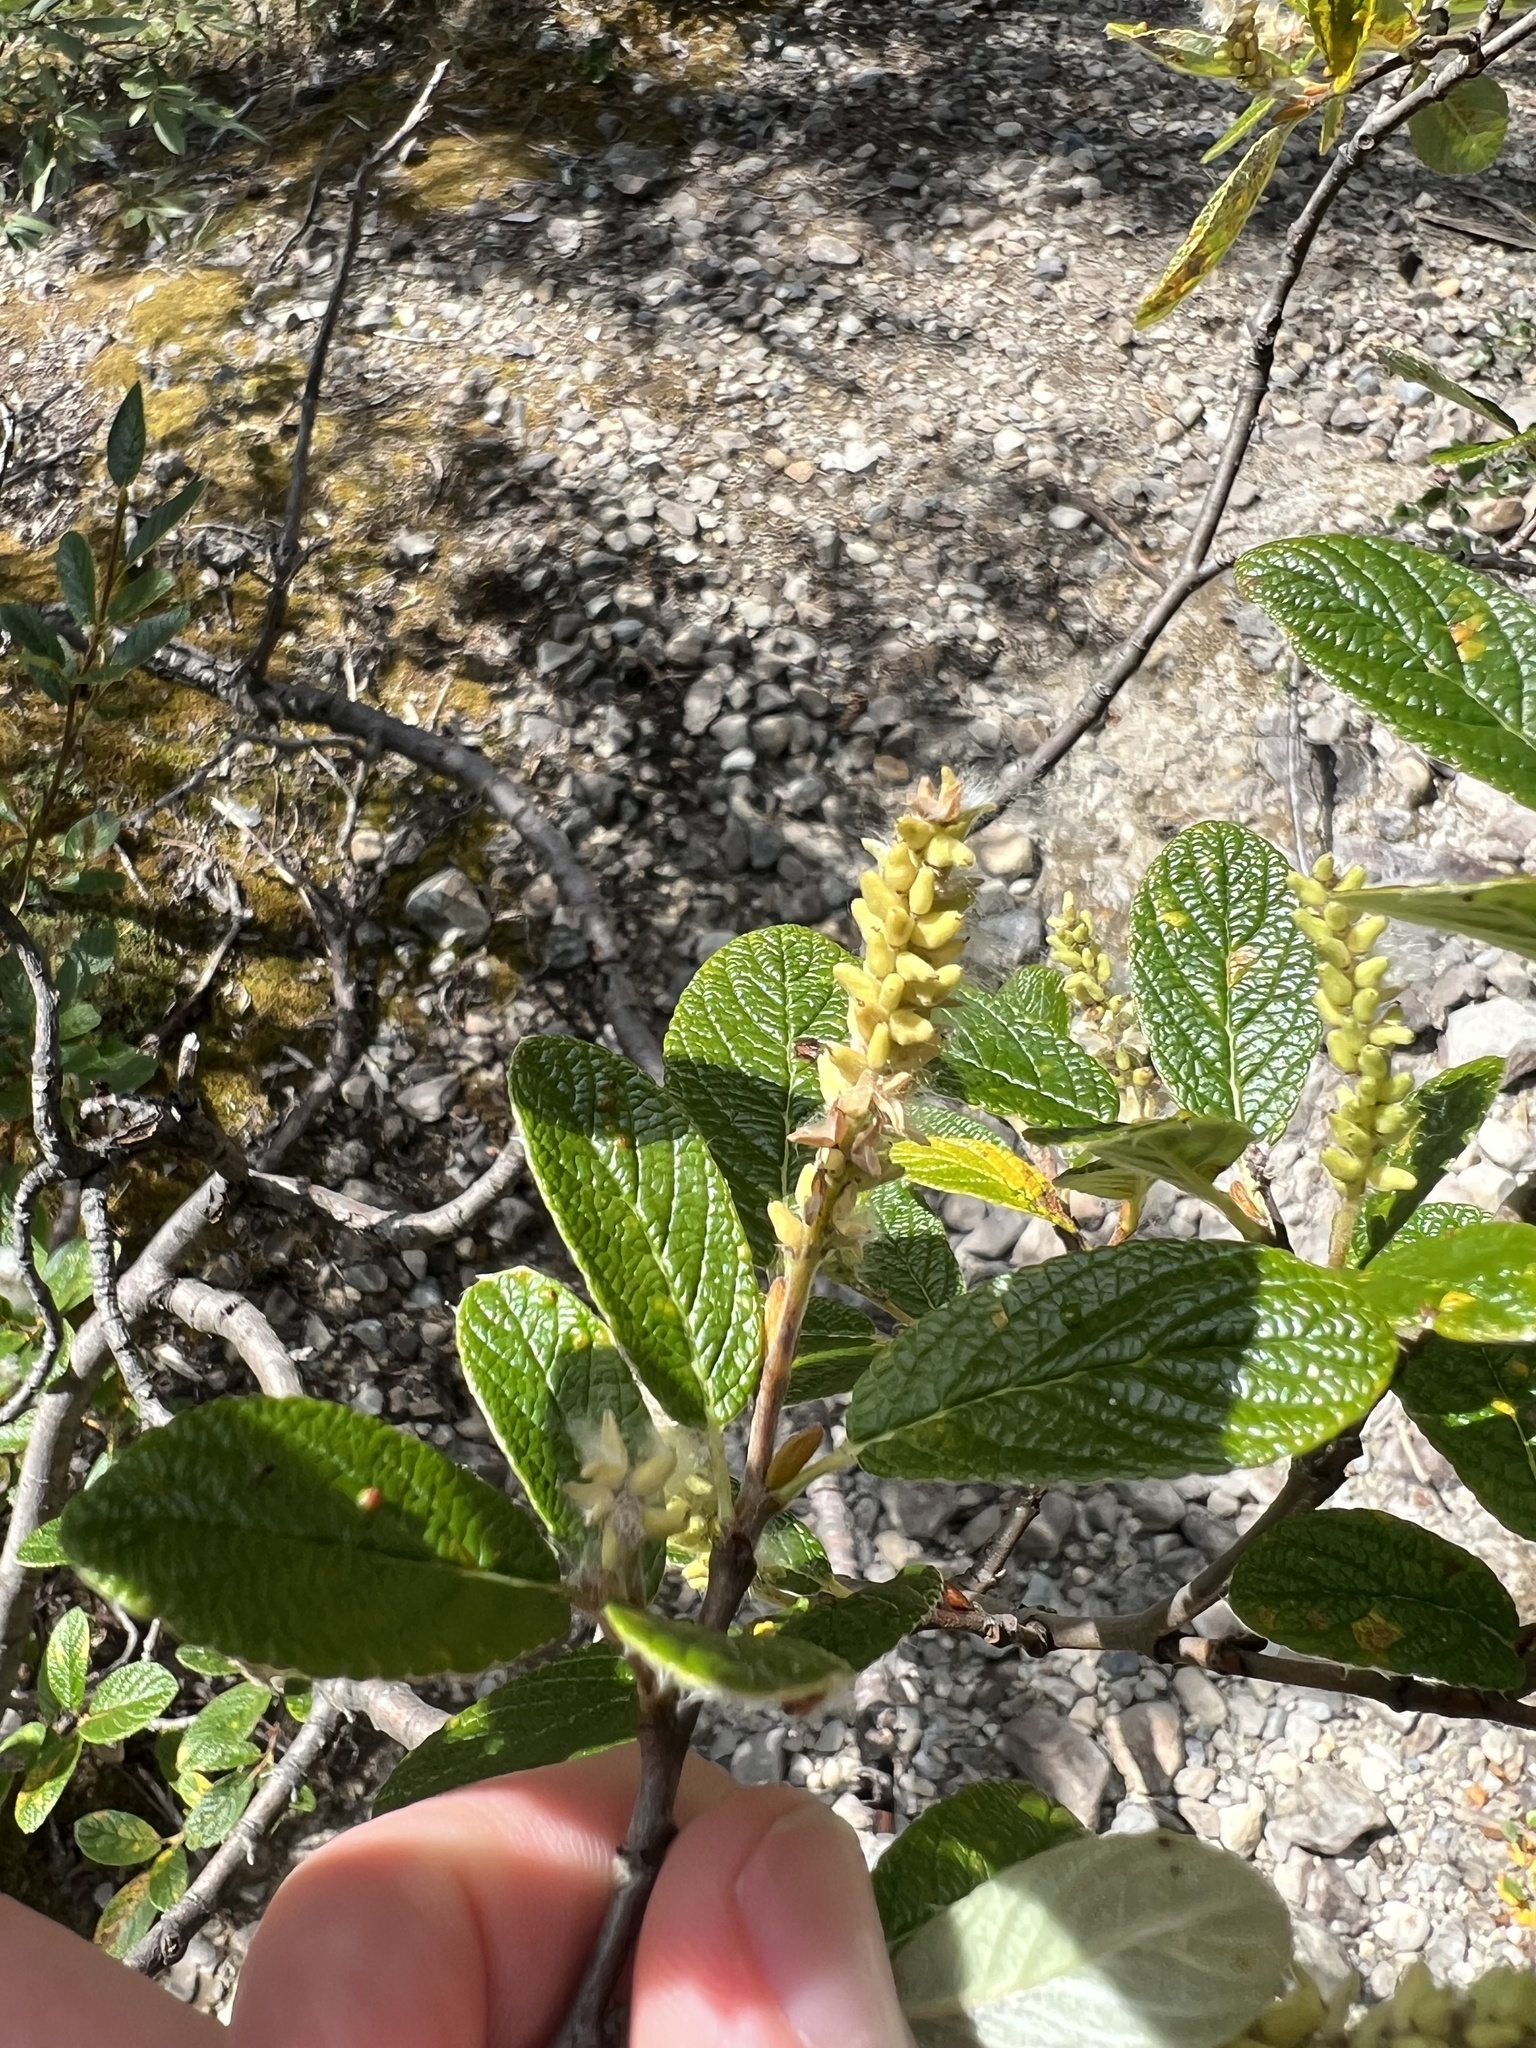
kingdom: Plantae
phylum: Tracheophyta
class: Magnoliopsida
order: Malpighiales
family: Salicaceae
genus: Salix
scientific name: Salix vestita
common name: Hairy willow
